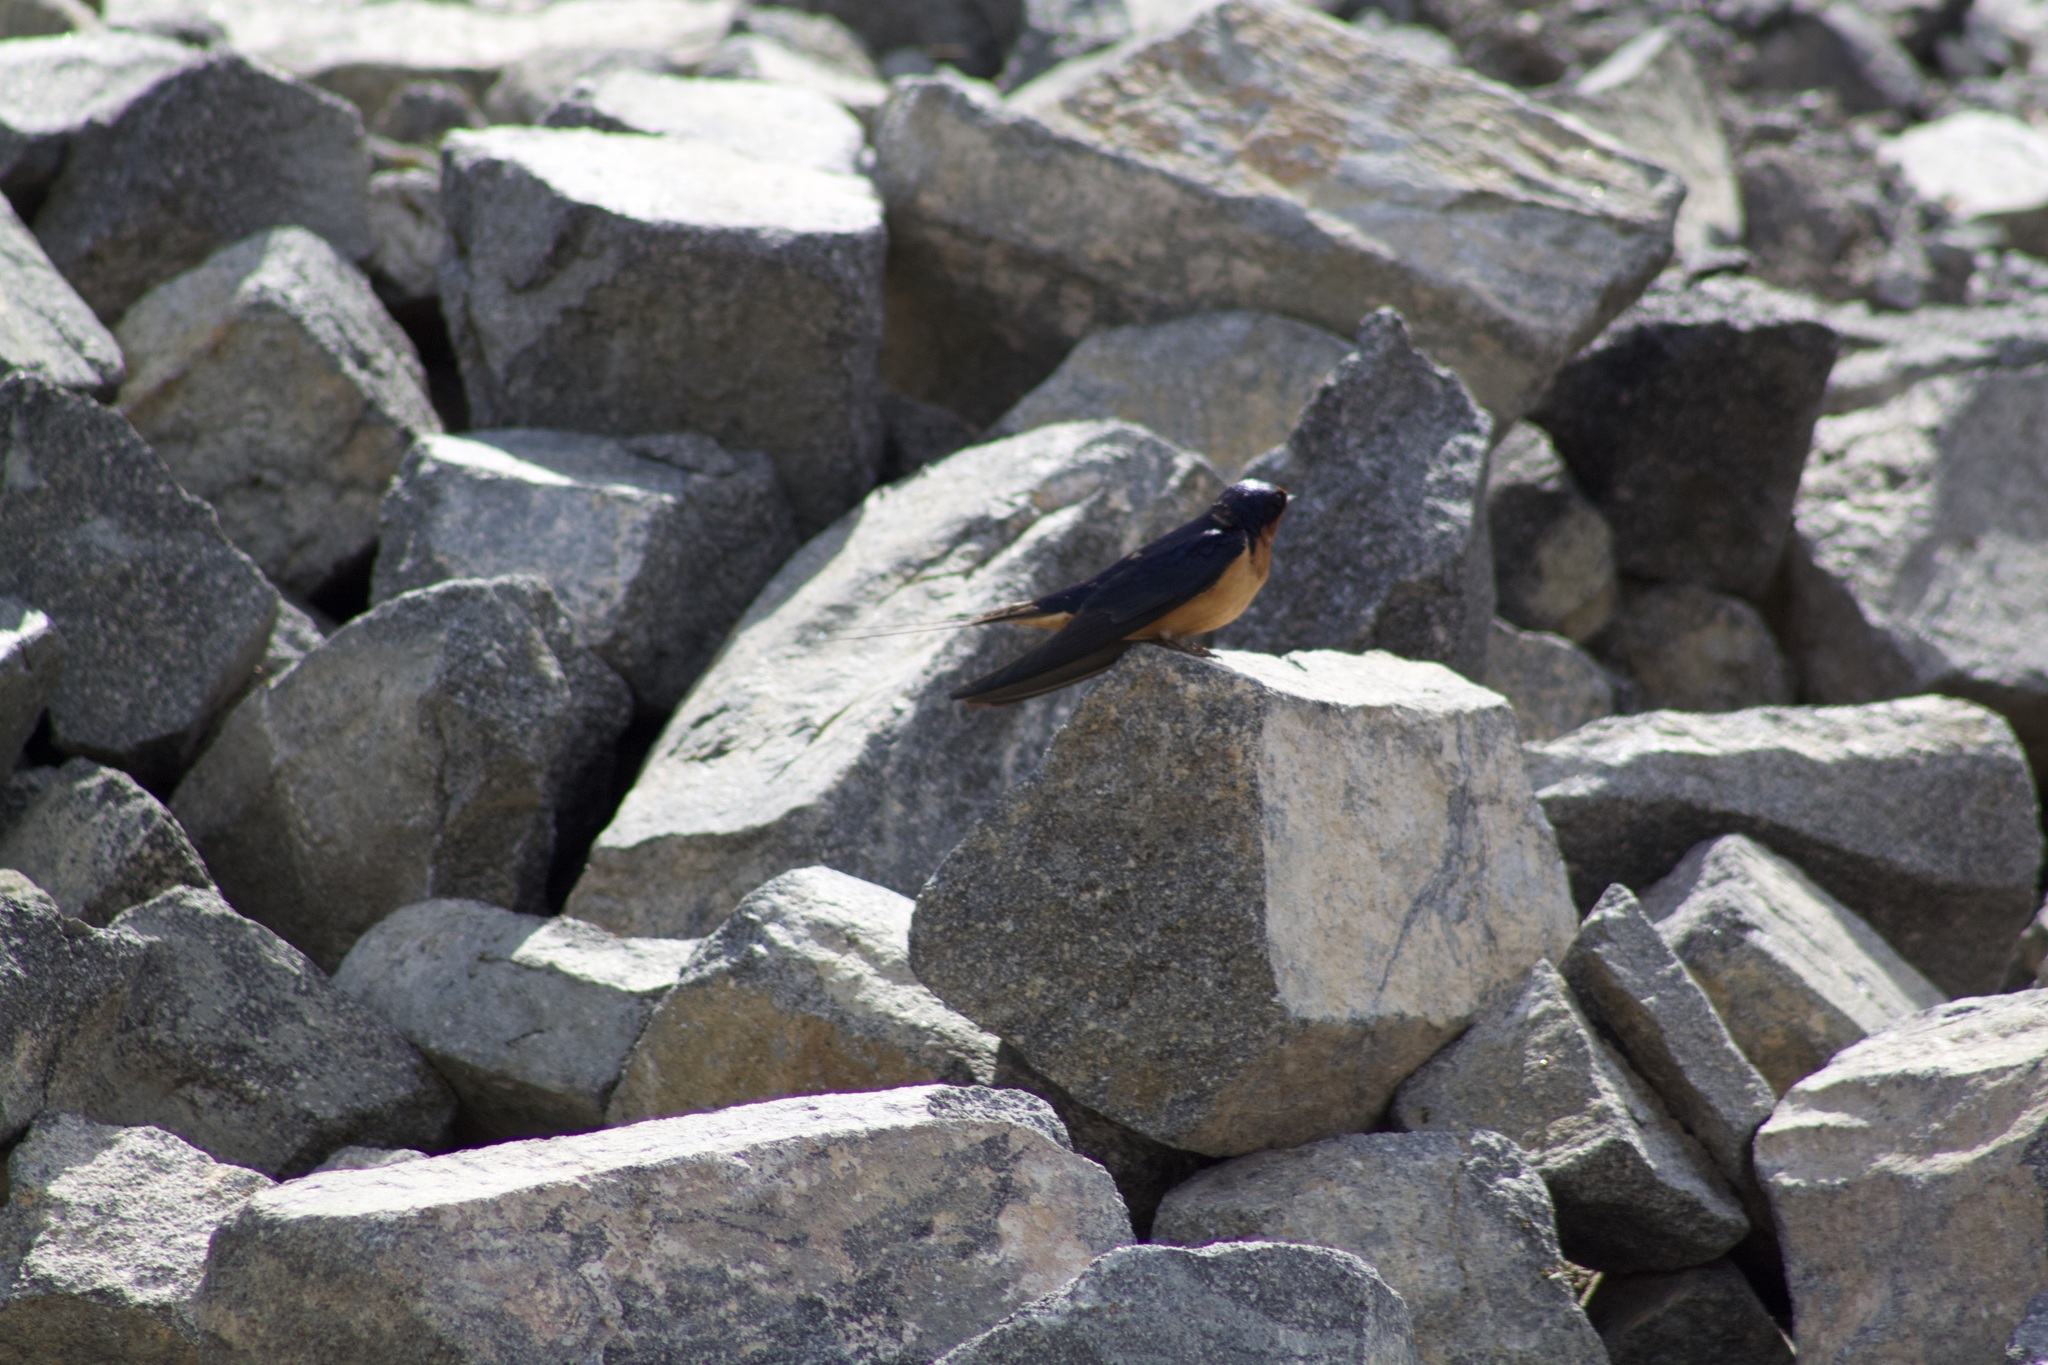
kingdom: Animalia
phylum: Chordata
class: Aves
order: Passeriformes
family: Hirundinidae
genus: Hirundo
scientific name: Hirundo rustica
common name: Barn swallow
